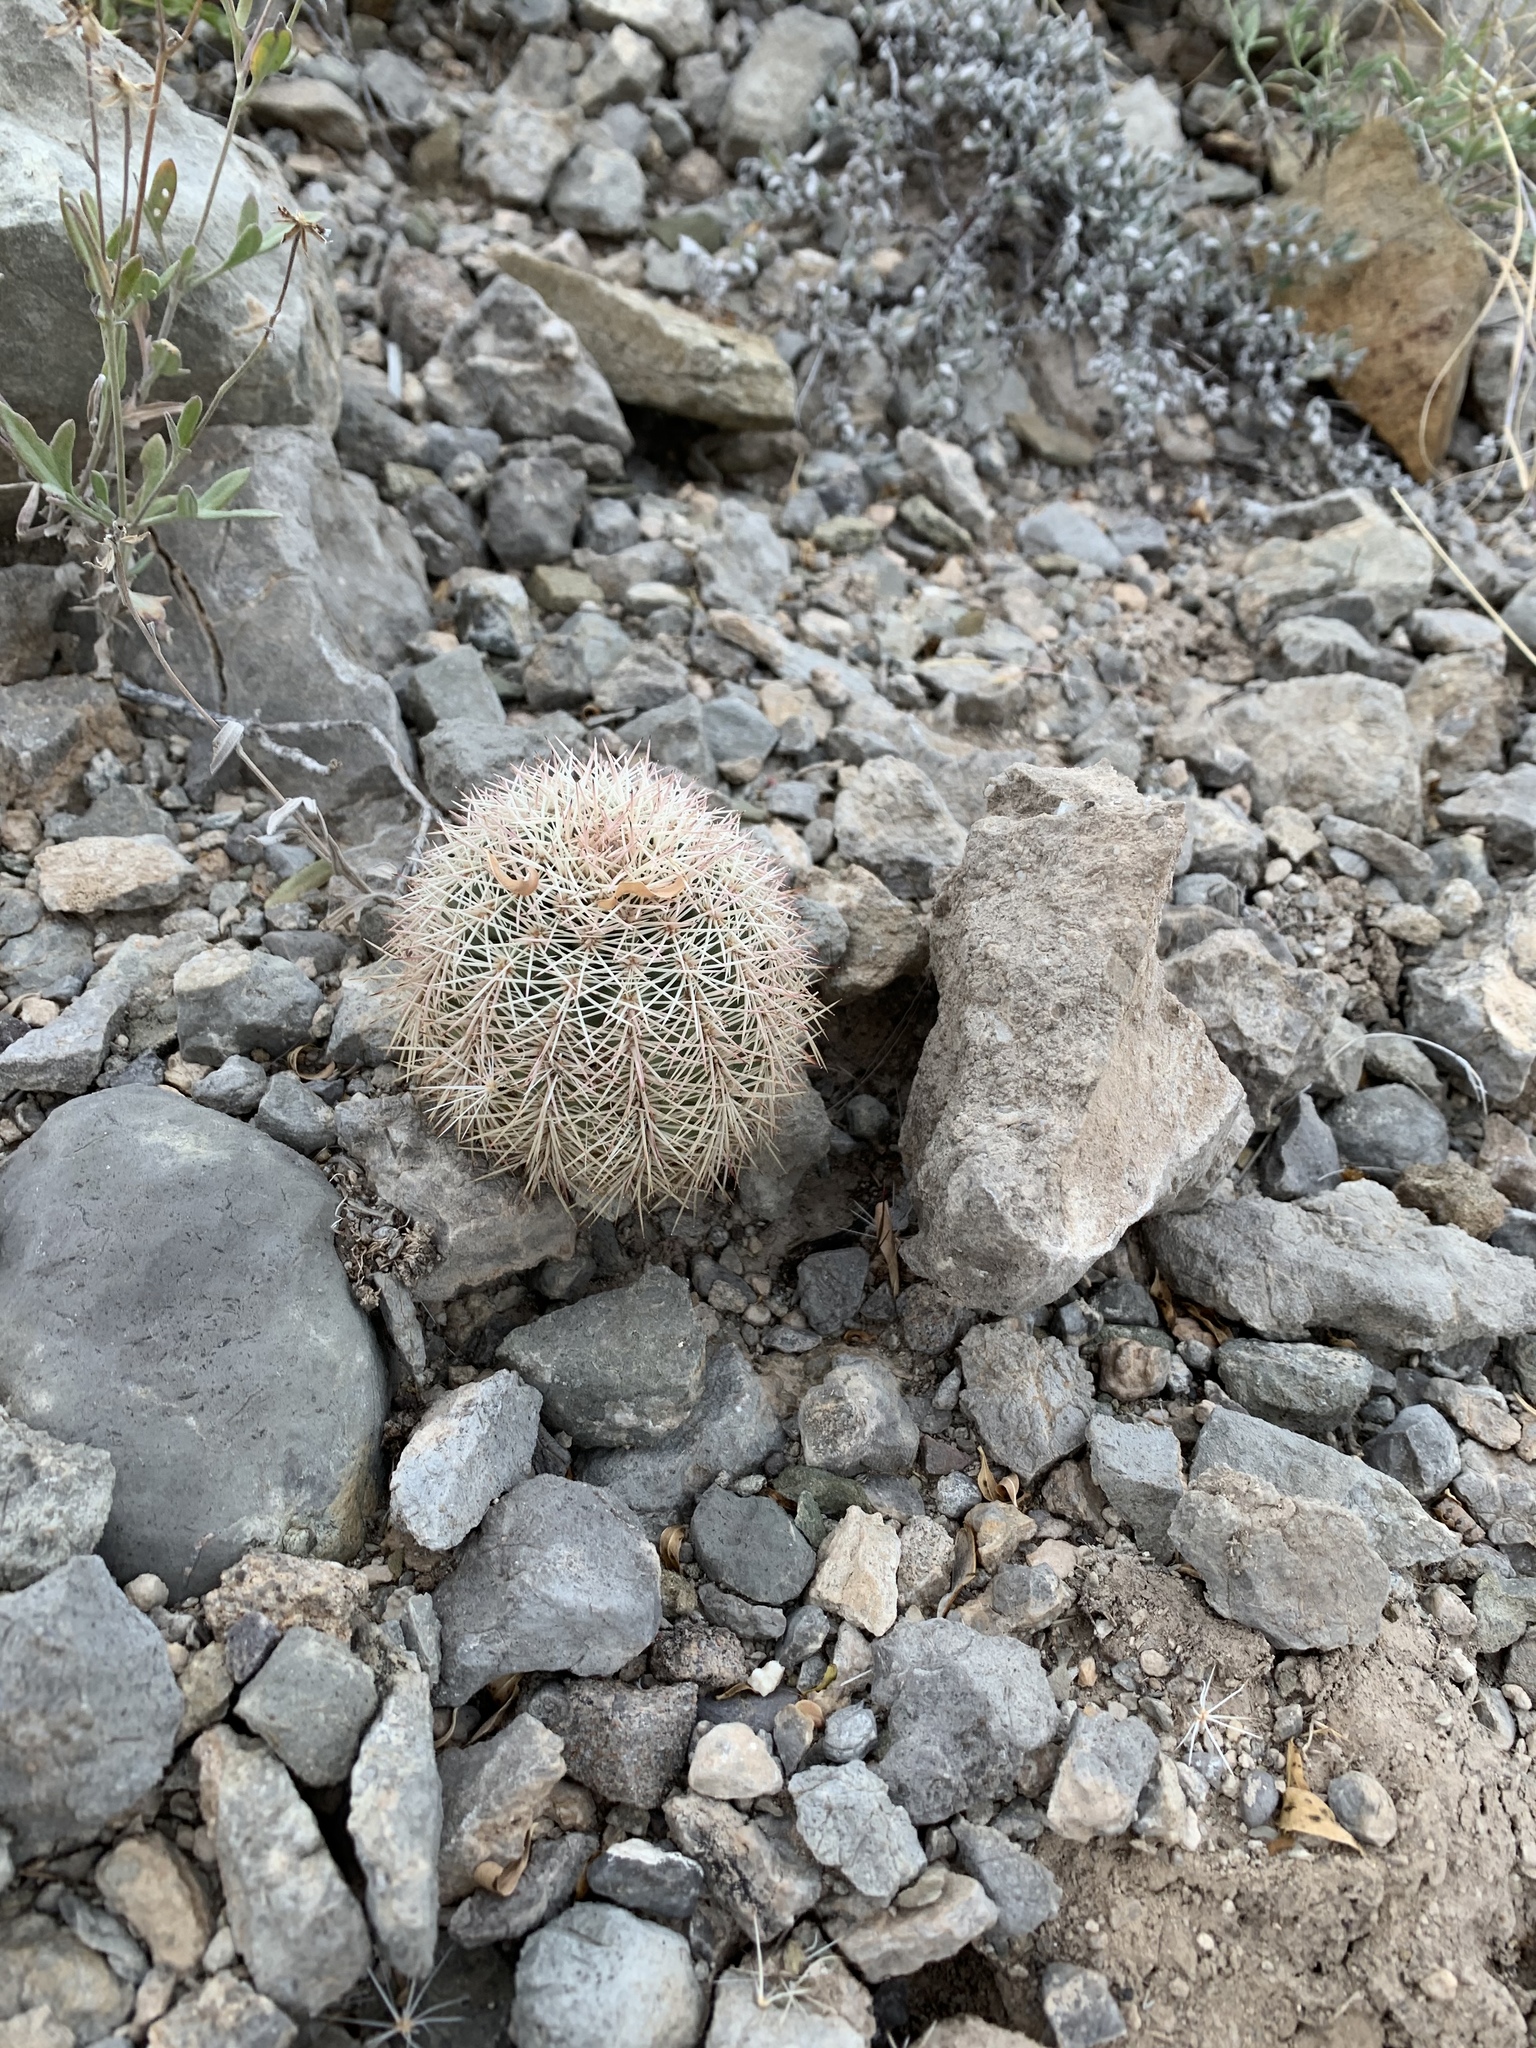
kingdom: Plantae
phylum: Tracheophyta
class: Magnoliopsida
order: Caryophyllales
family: Cactaceae
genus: Echinocereus
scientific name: Echinocereus dasyacanthus
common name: Spiny hedgehog cactus
